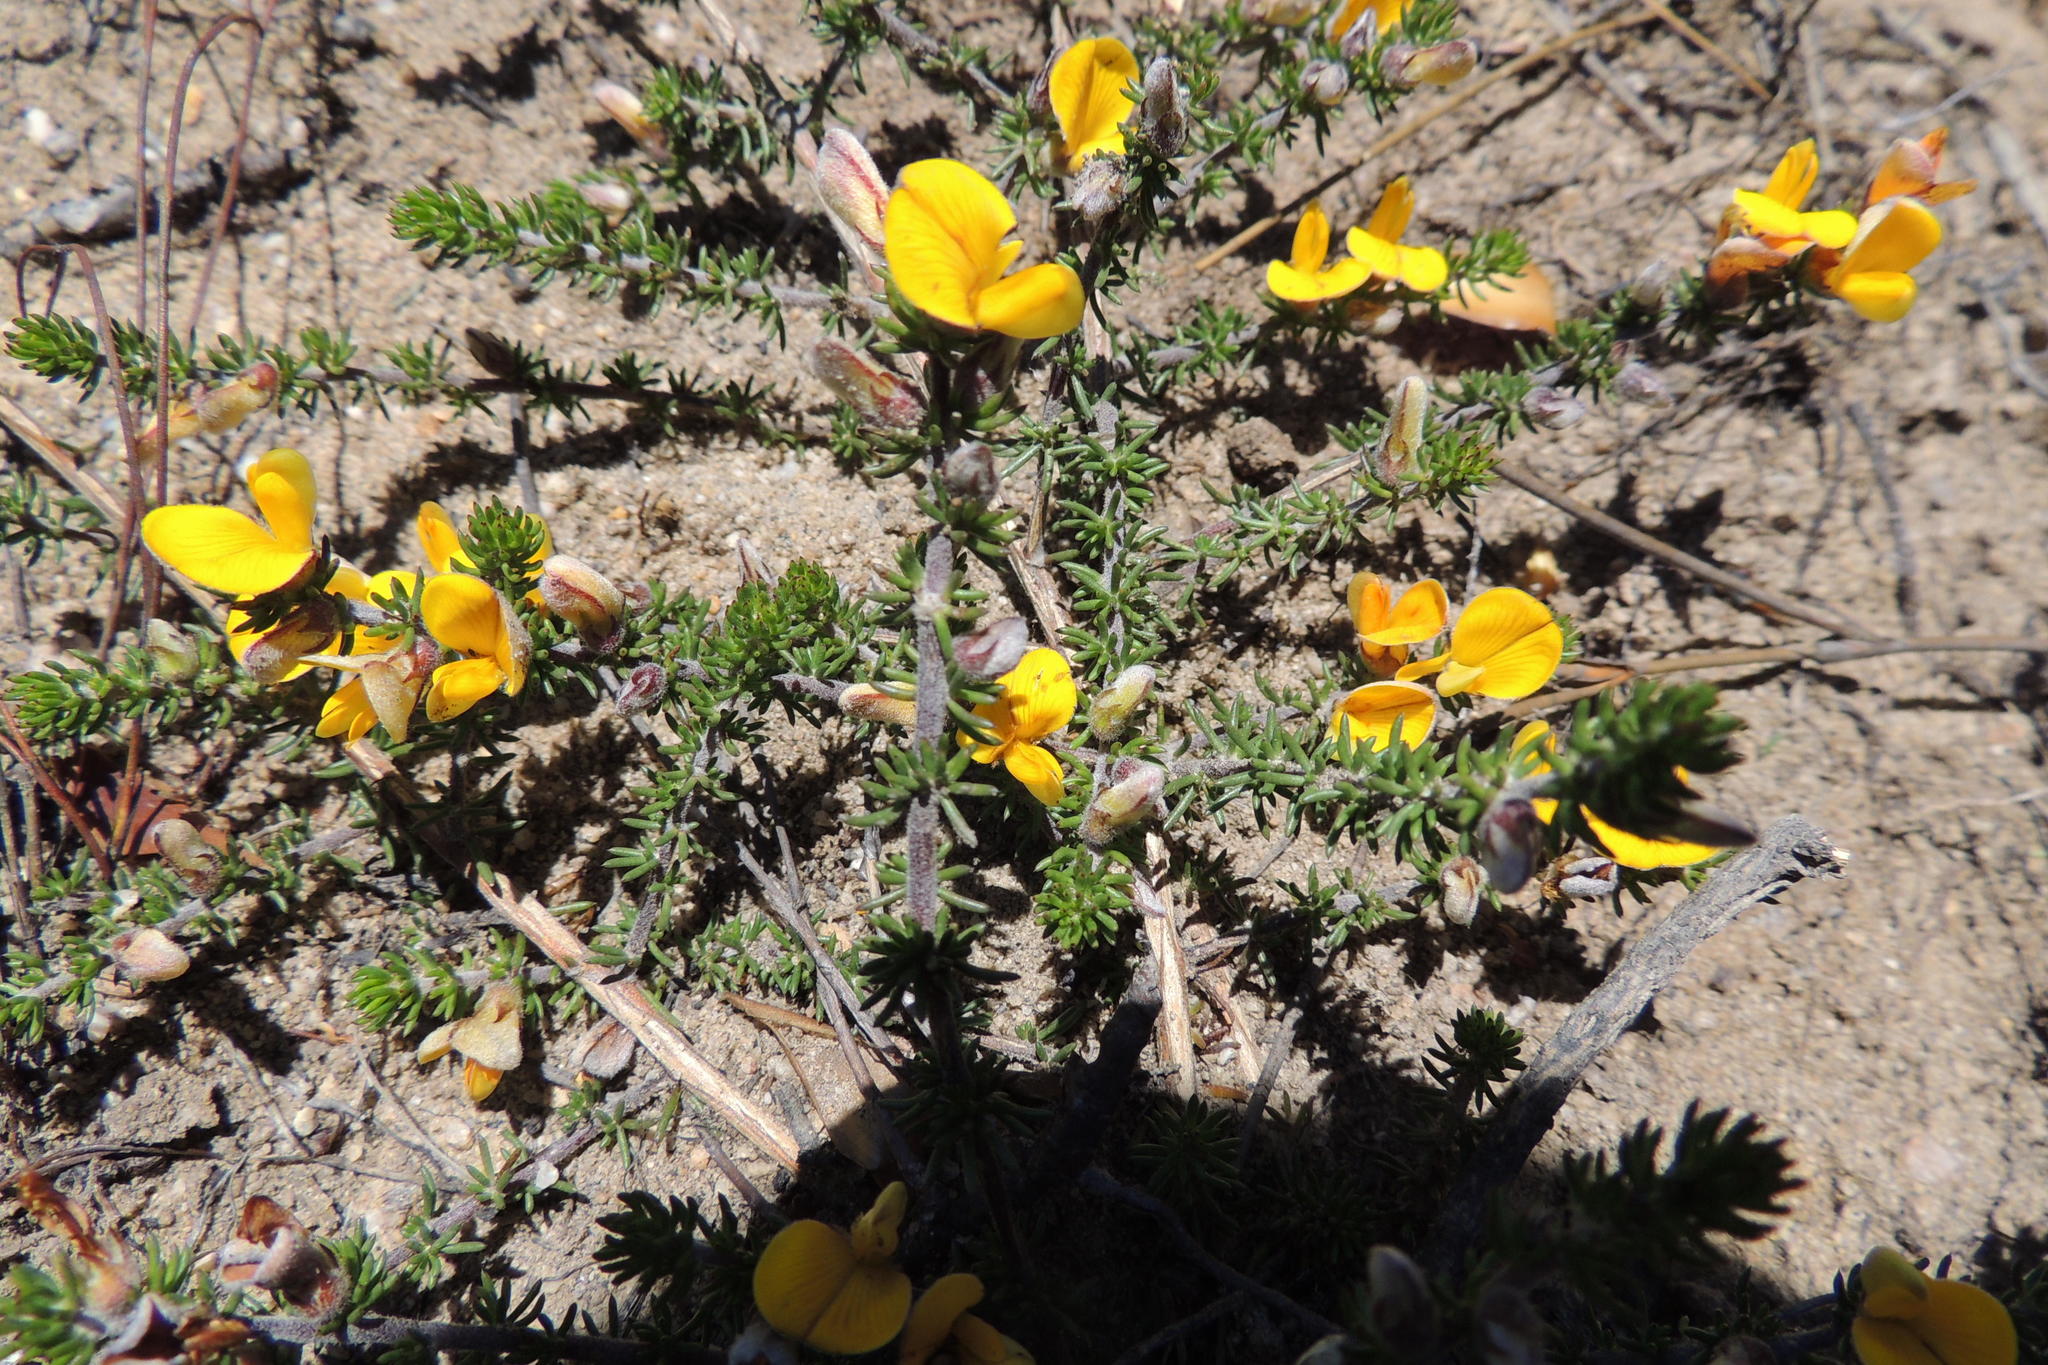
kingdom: Plantae
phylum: Tracheophyta
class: Magnoliopsida
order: Fabales
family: Fabaceae
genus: Aspalathus
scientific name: Aspalathus laricifolia
